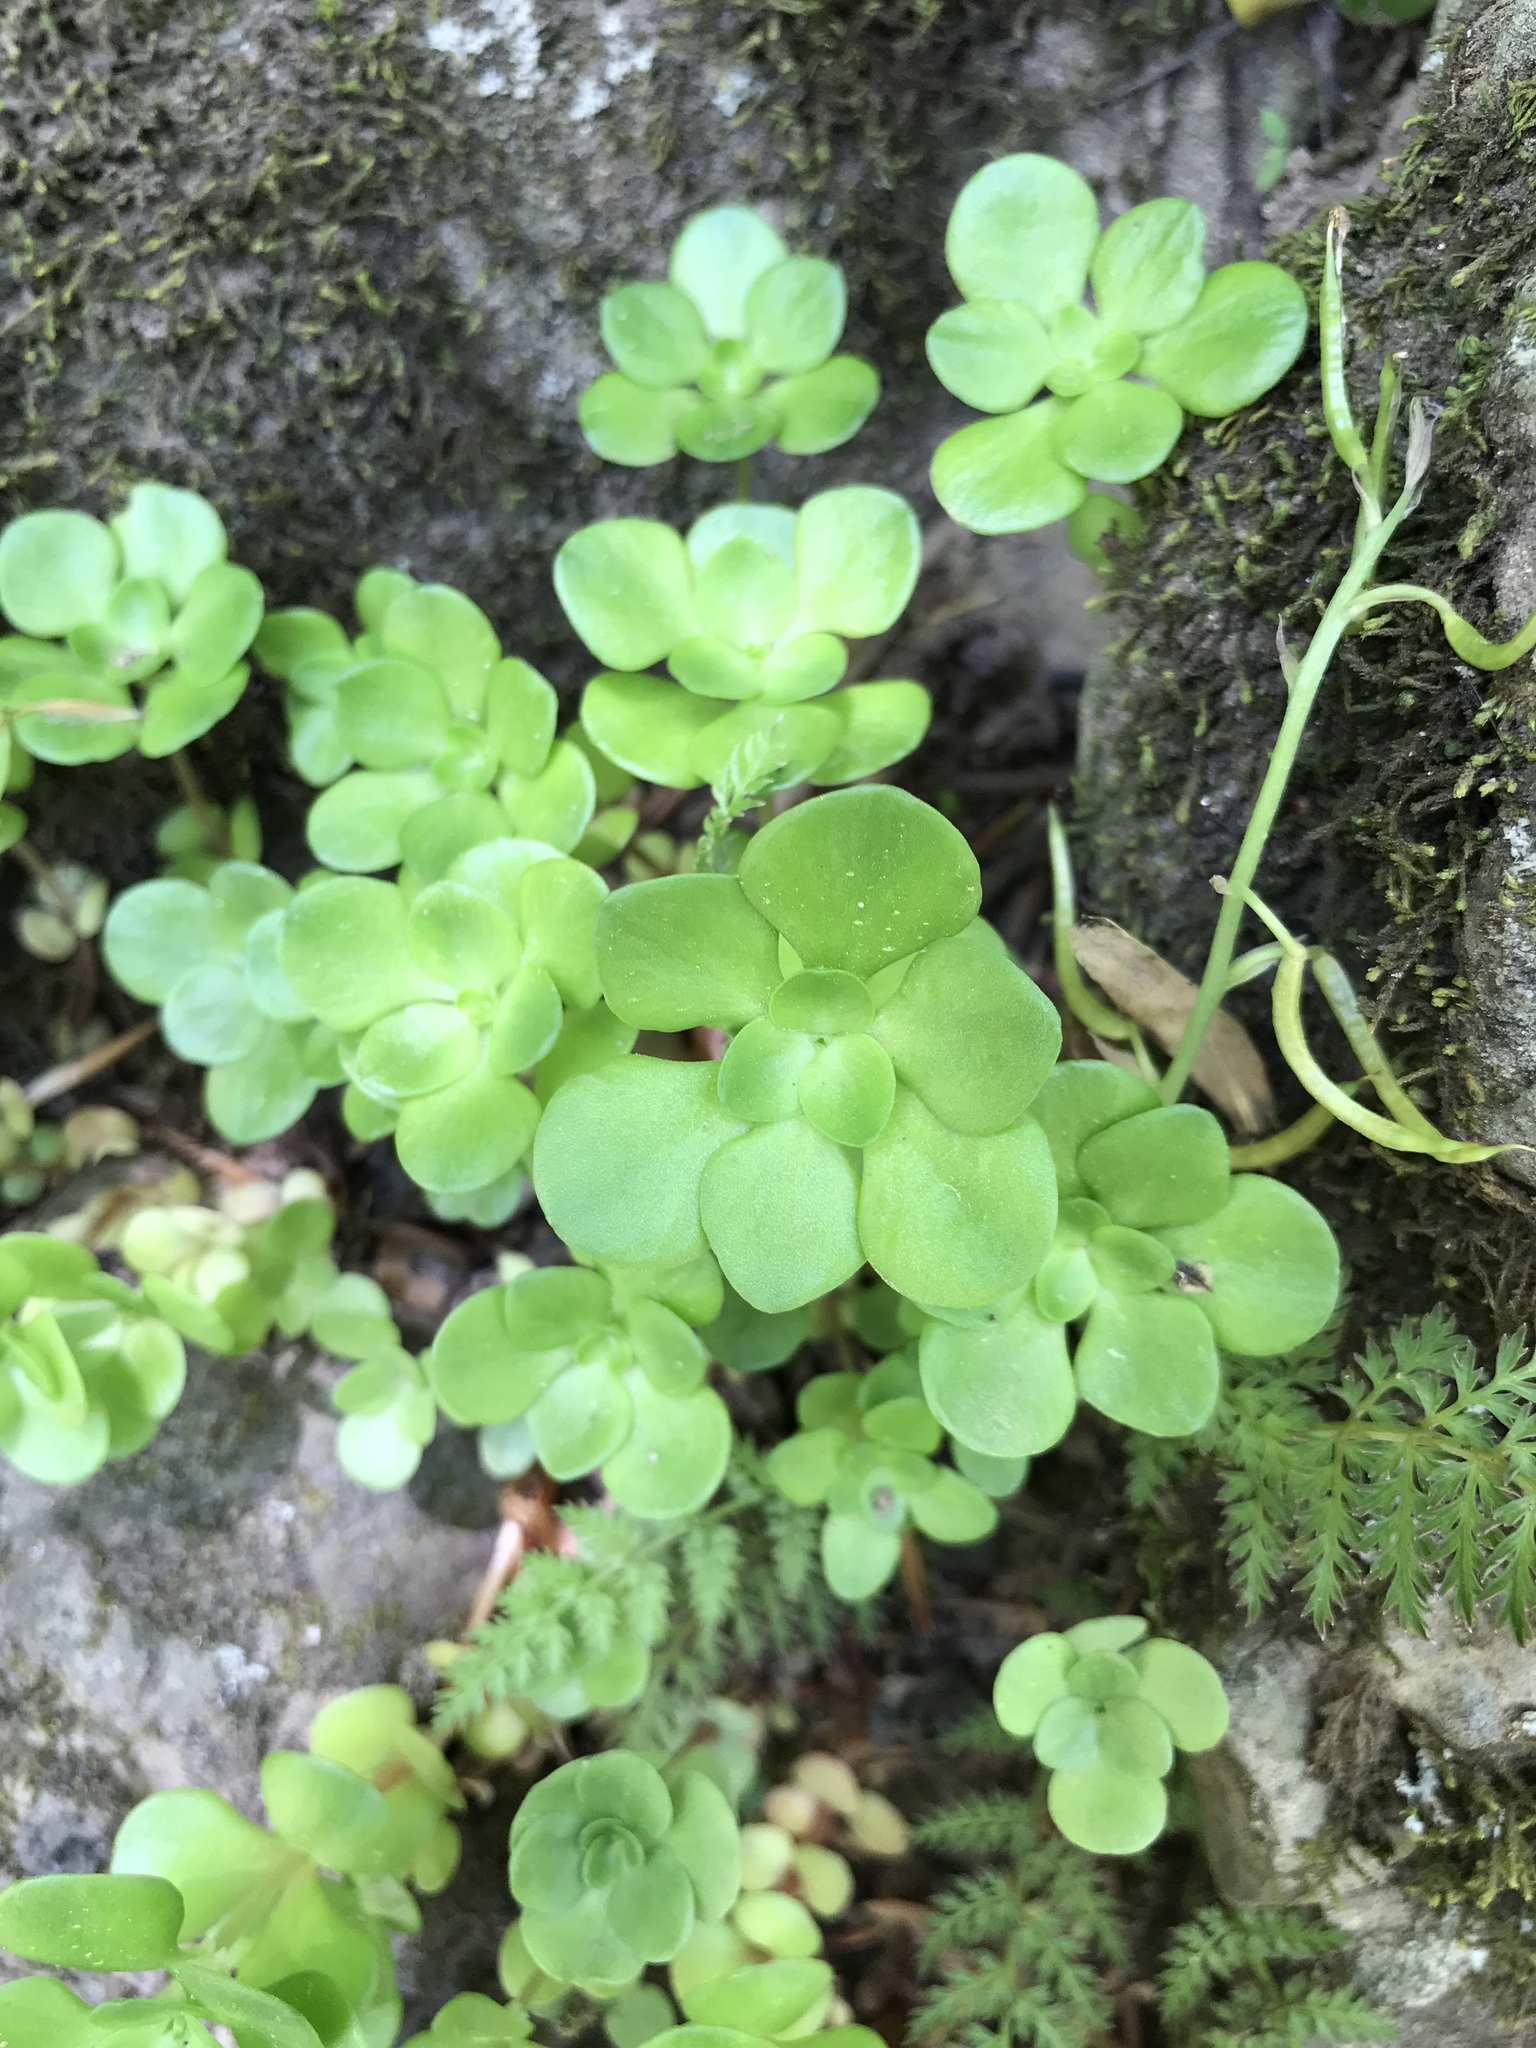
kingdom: Plantae
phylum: Tracheophyta
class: Magnoliopsida
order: Saxifragales
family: Crassulaceae
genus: Sedum
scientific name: Sedum ternatum
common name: Wild stonecrop
